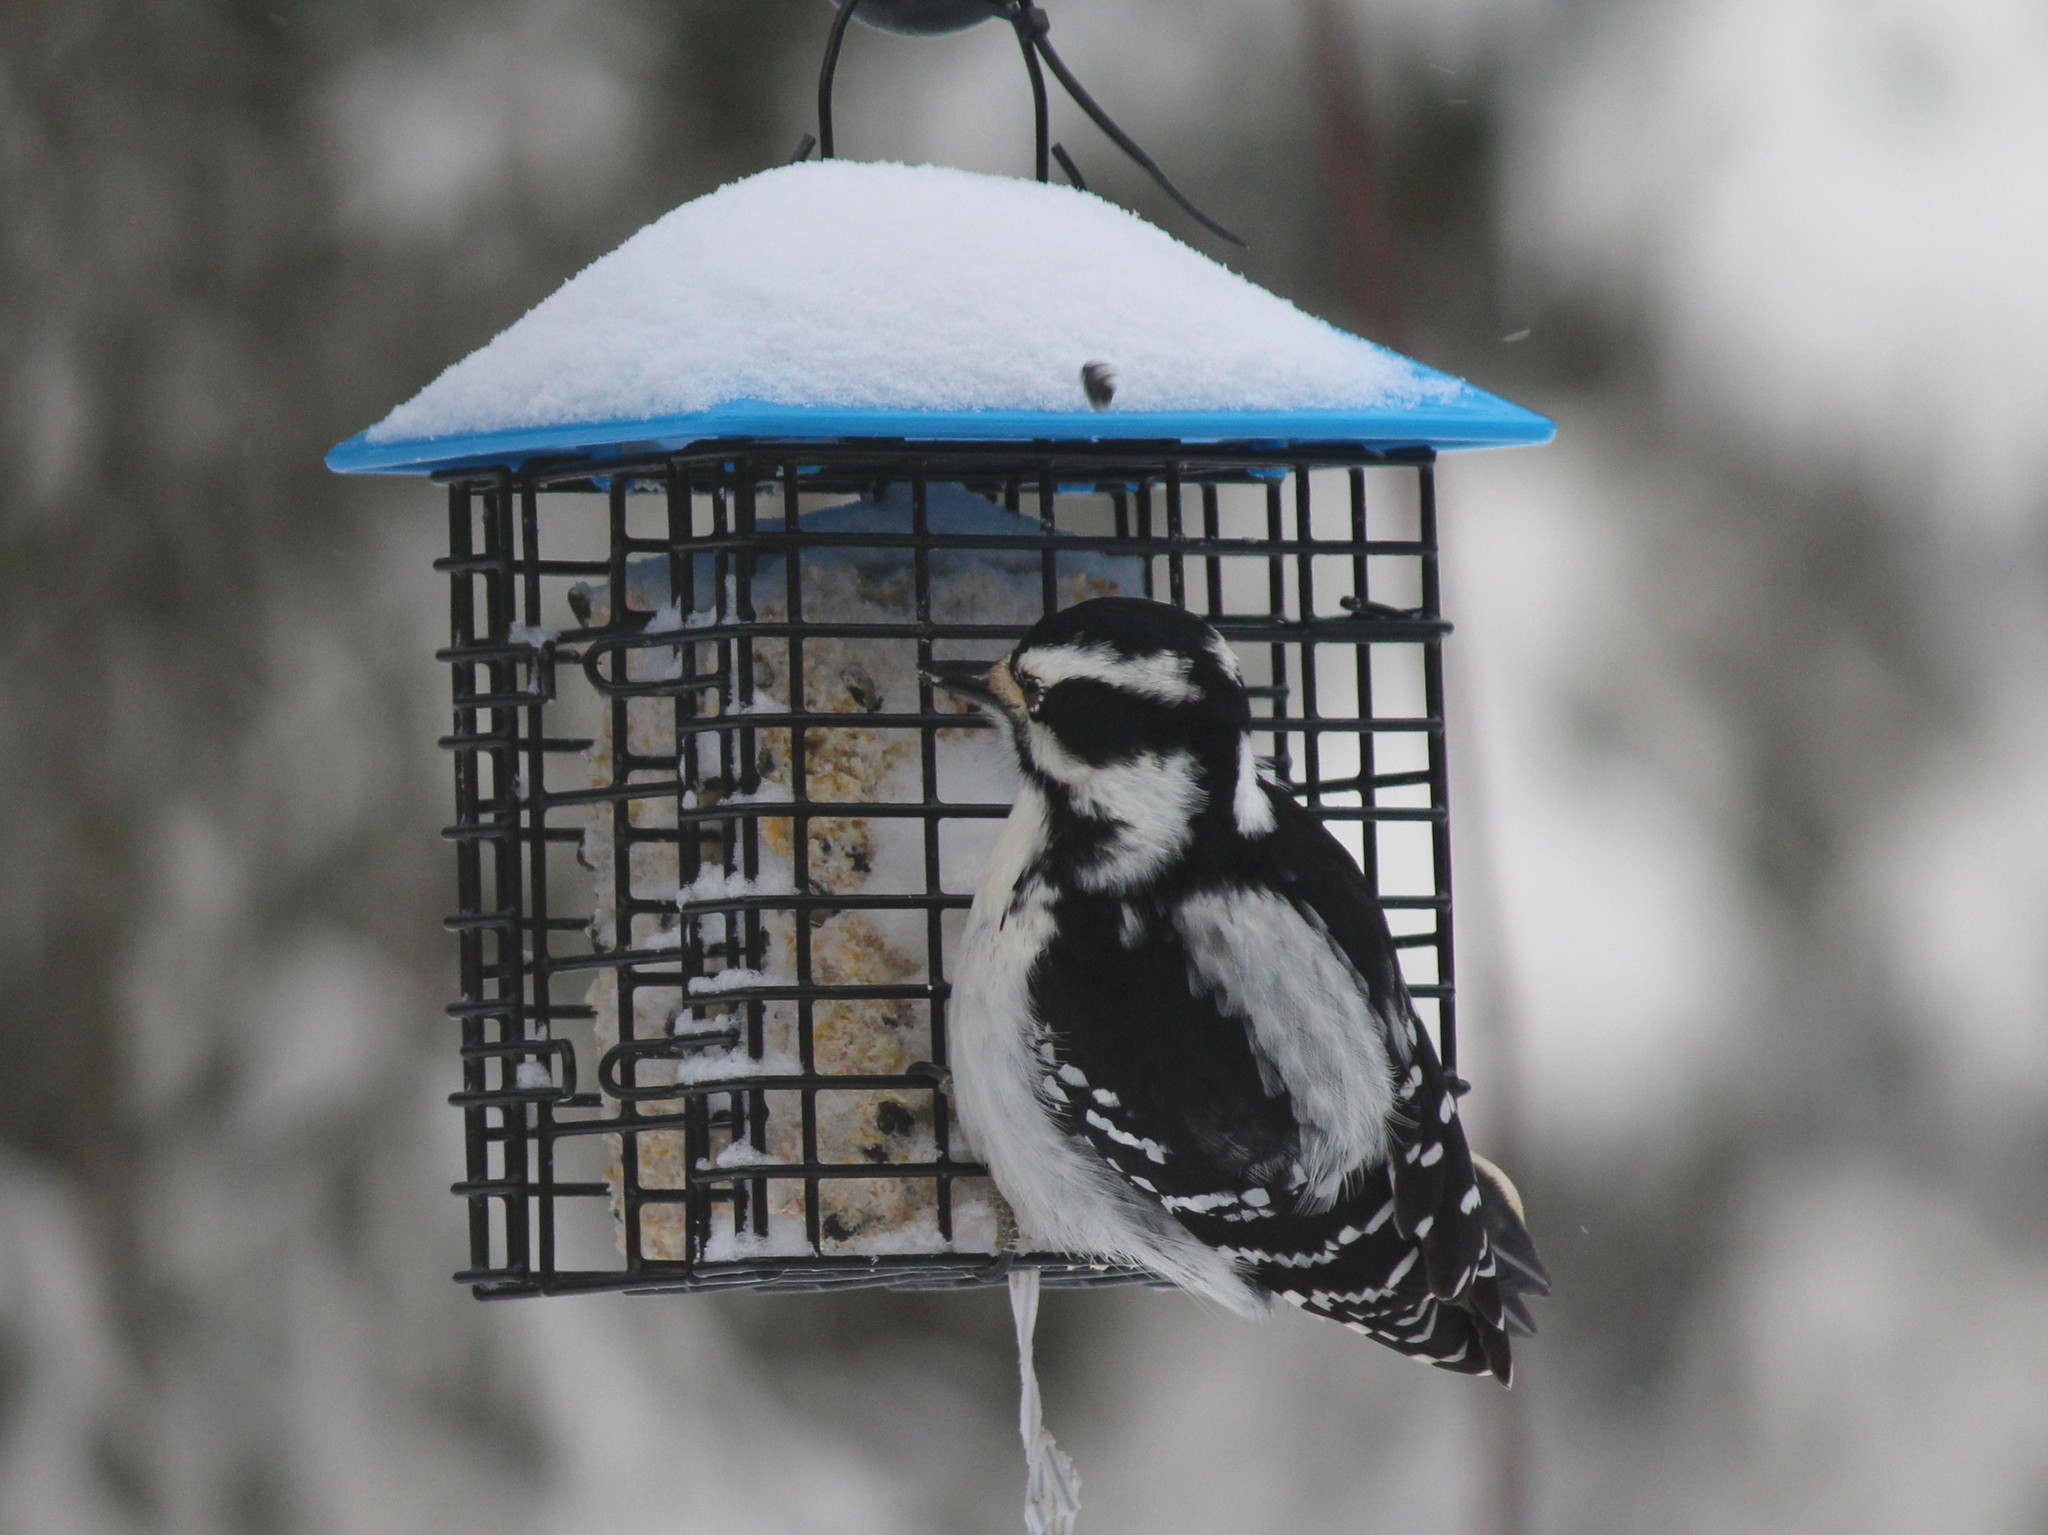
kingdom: Animalia
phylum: Chordata
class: Aves
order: Piciformes
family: Picidae
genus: Dryobates
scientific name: Dryobates pubescens
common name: Downy woodpecker
